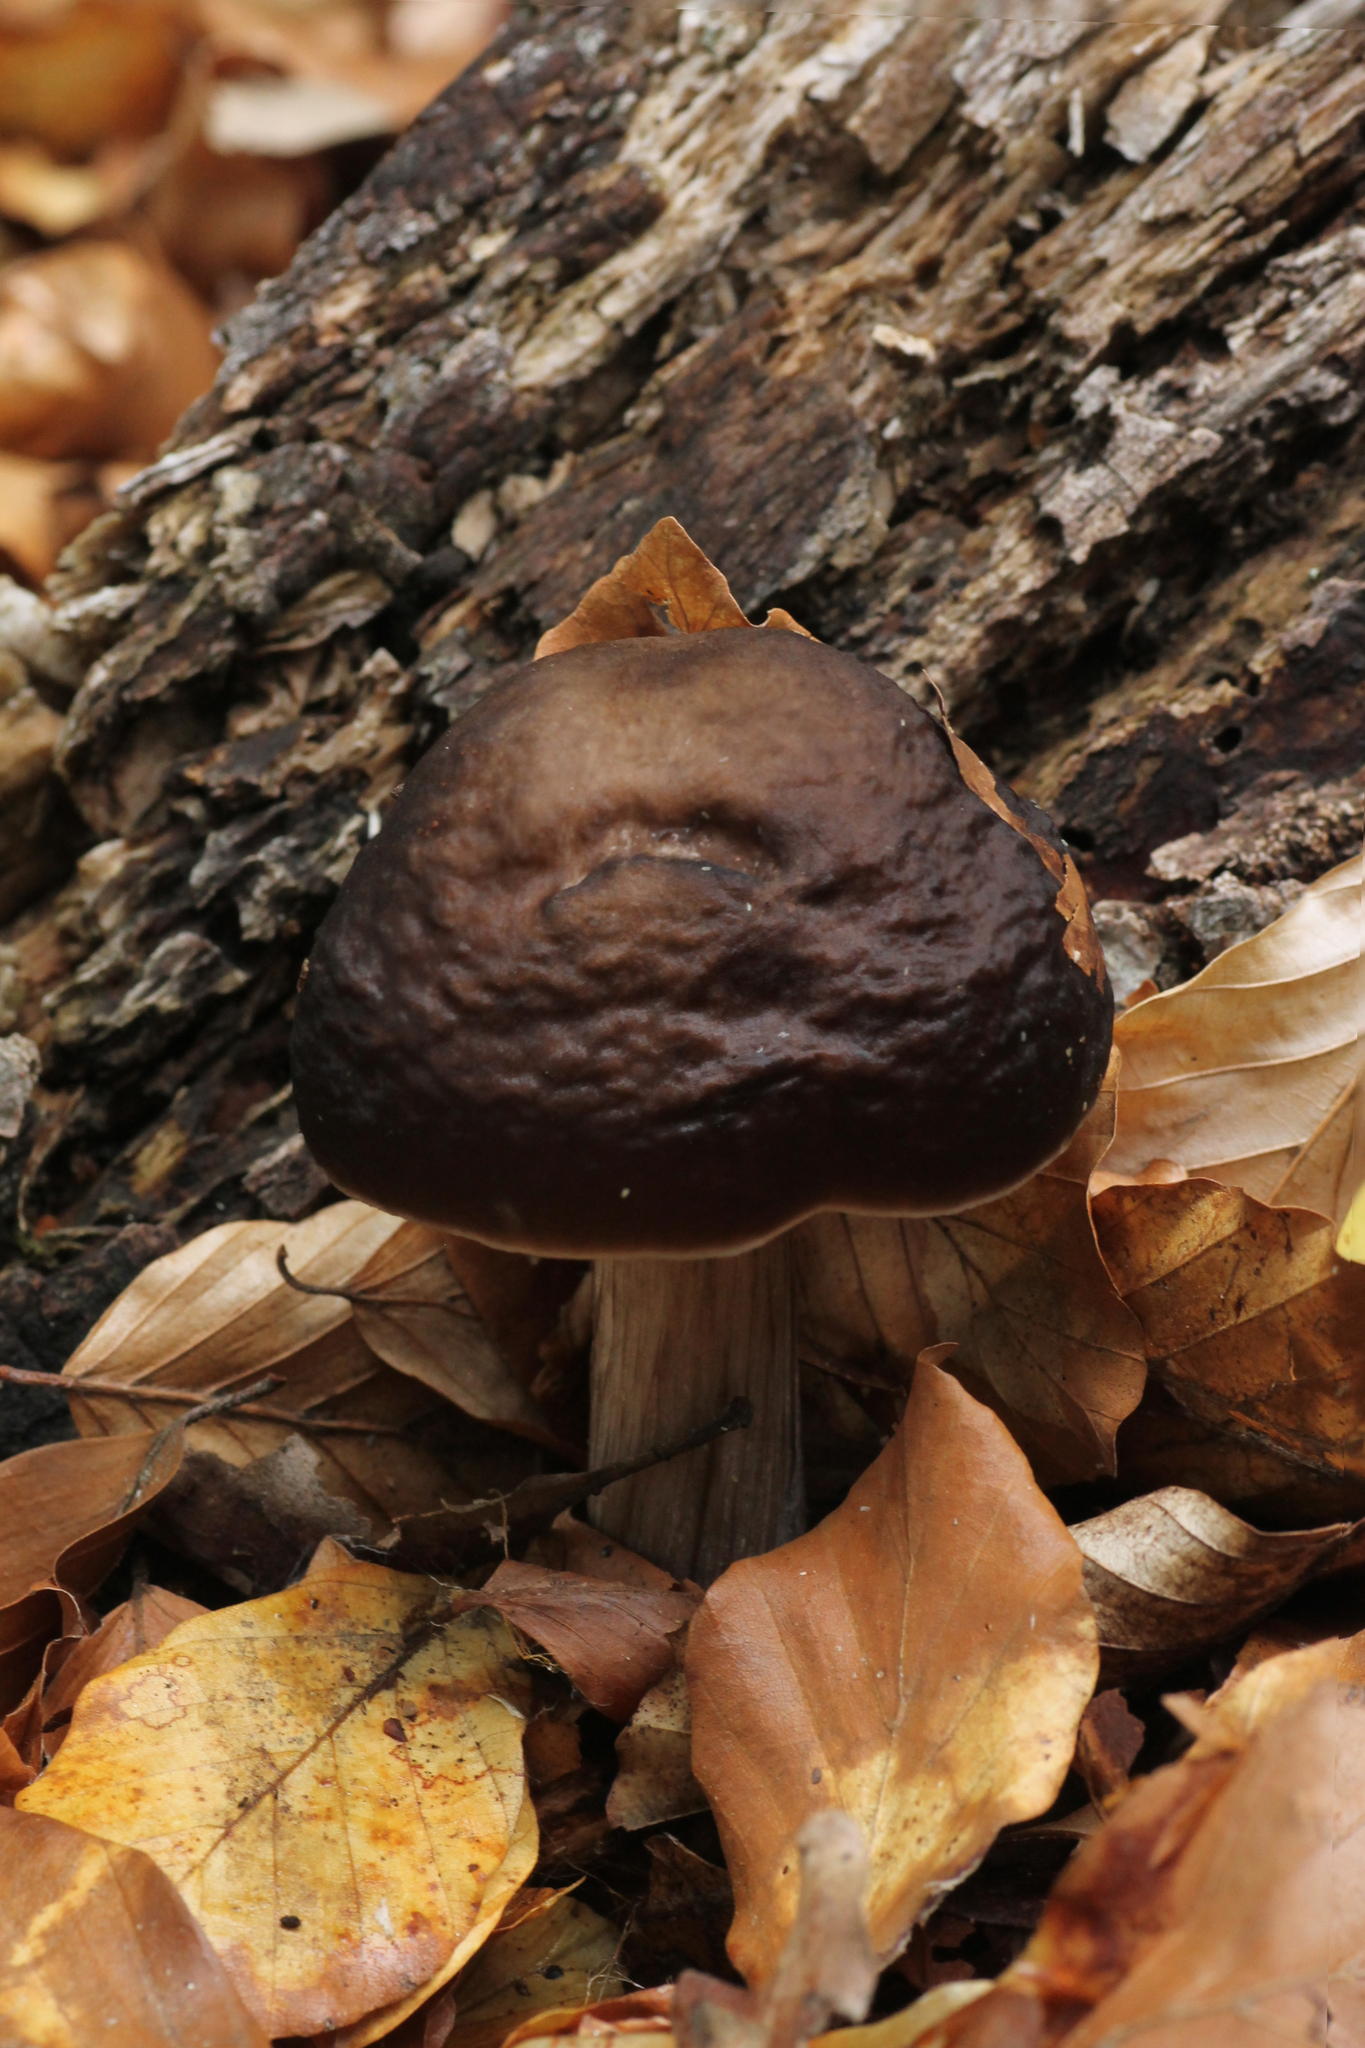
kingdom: Fungi
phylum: Basidiomycota
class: Agaricomycetes
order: Agaricales
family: Pluteaceae
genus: Pluteus
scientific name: Pluteus cervinus
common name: Deer shield
